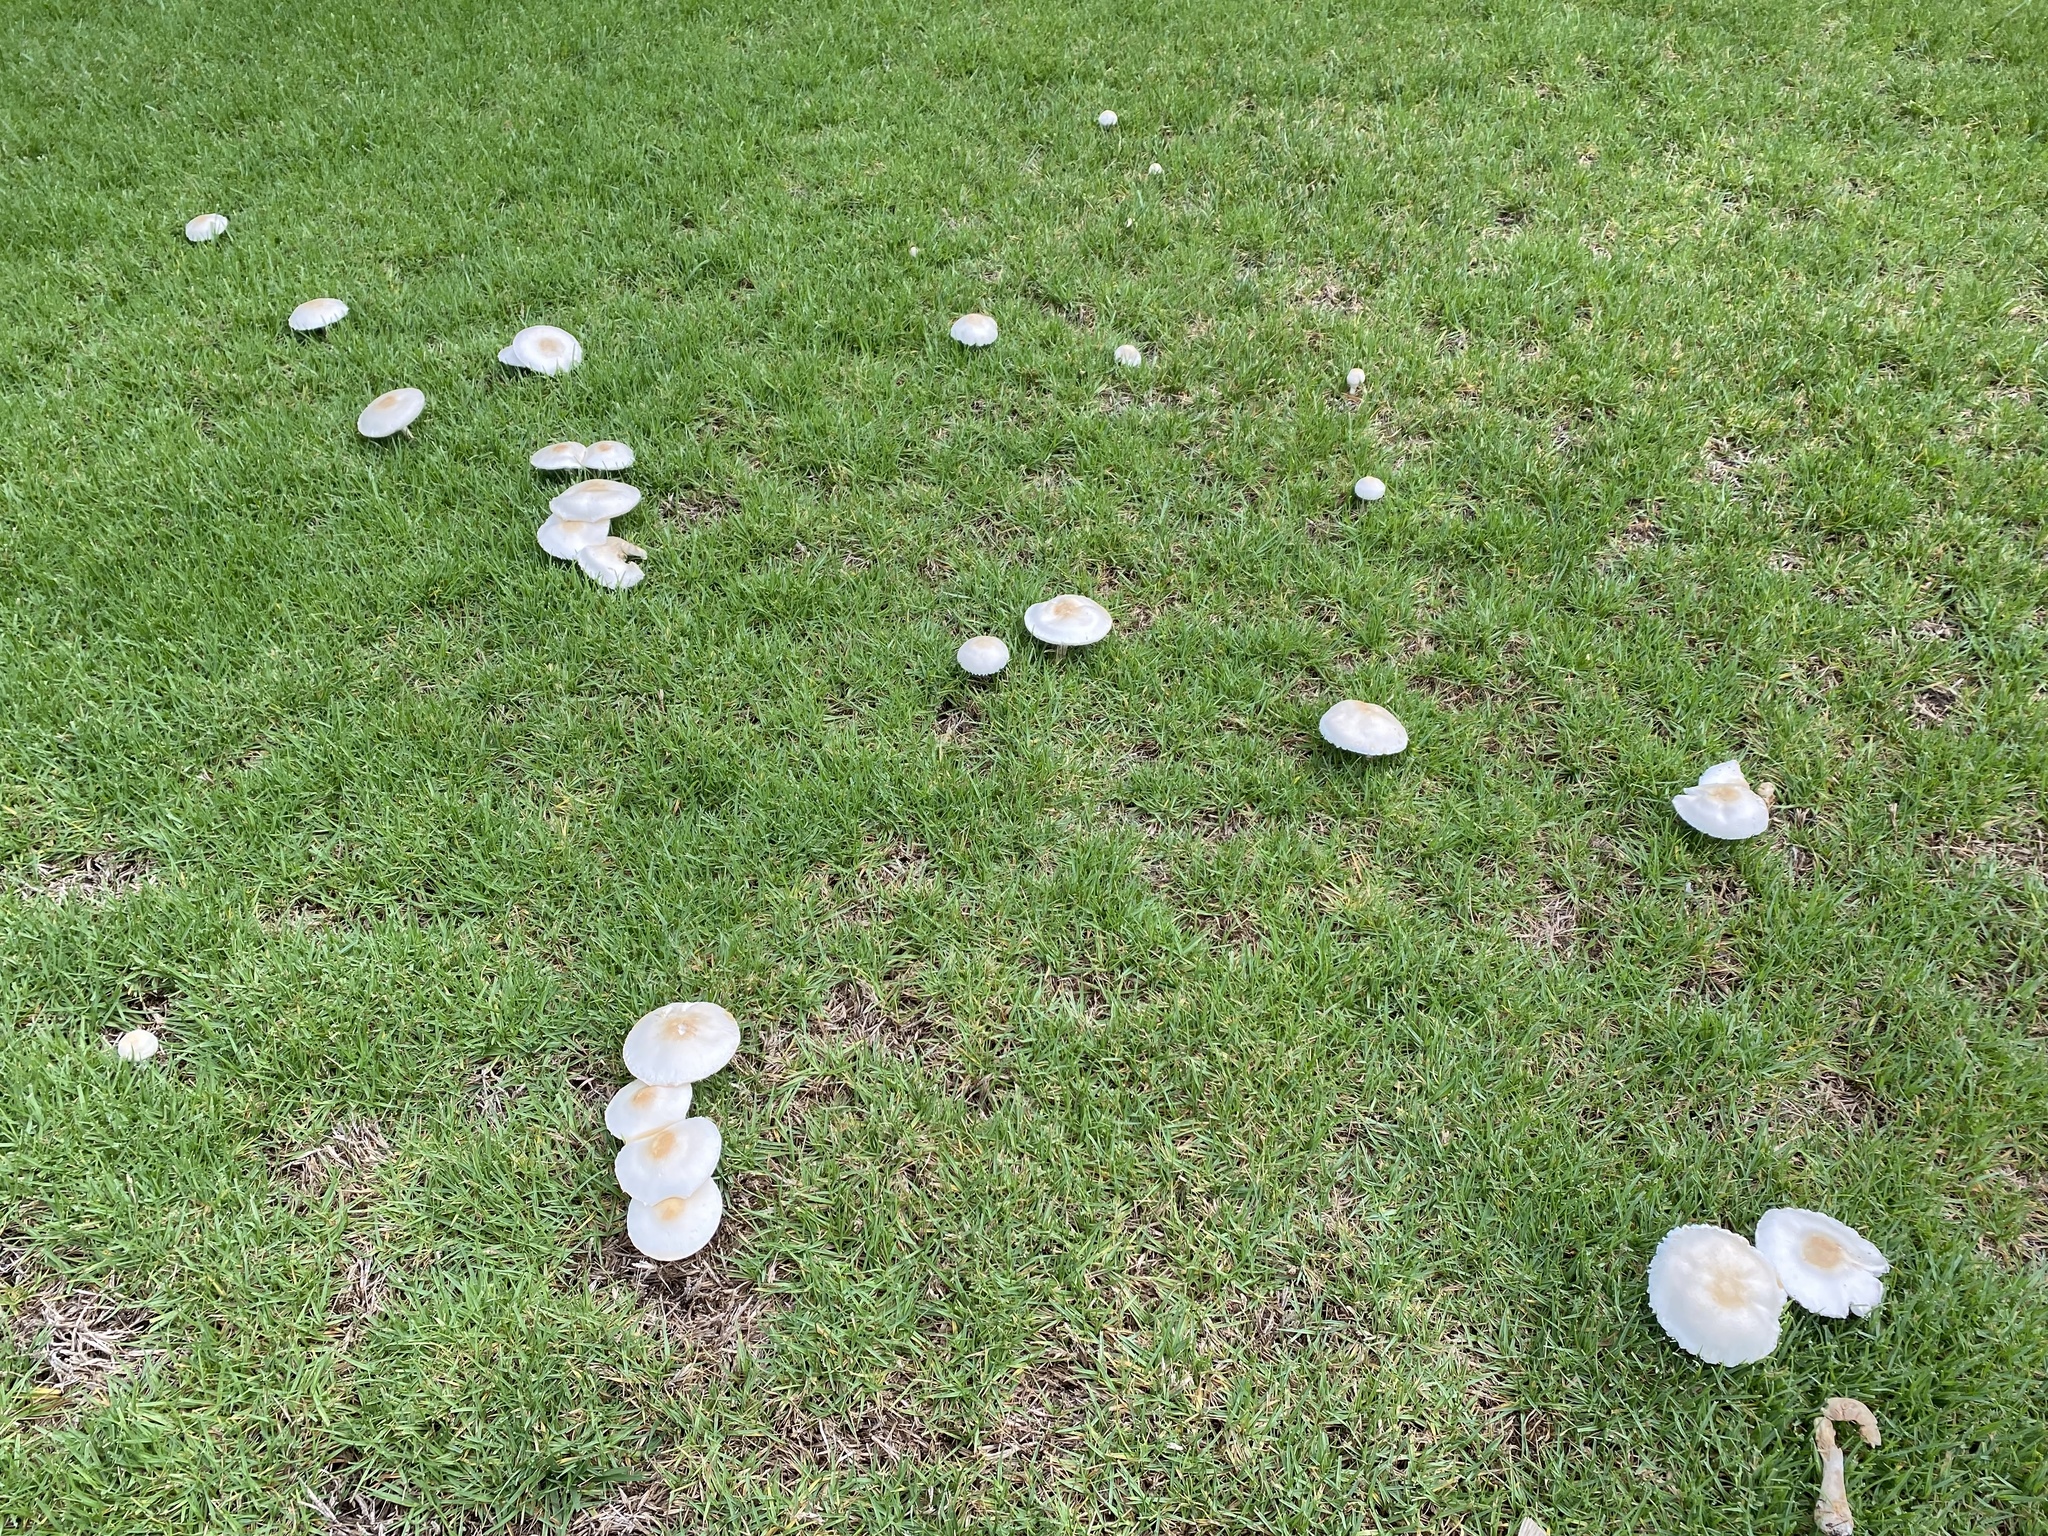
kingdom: Fungi
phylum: Basidiomycota
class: Agaricomycetes
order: Agaricales
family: Agaricaceae
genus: Leucoagaricus
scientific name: Leucoagaricus leucothites
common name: White dapperling
